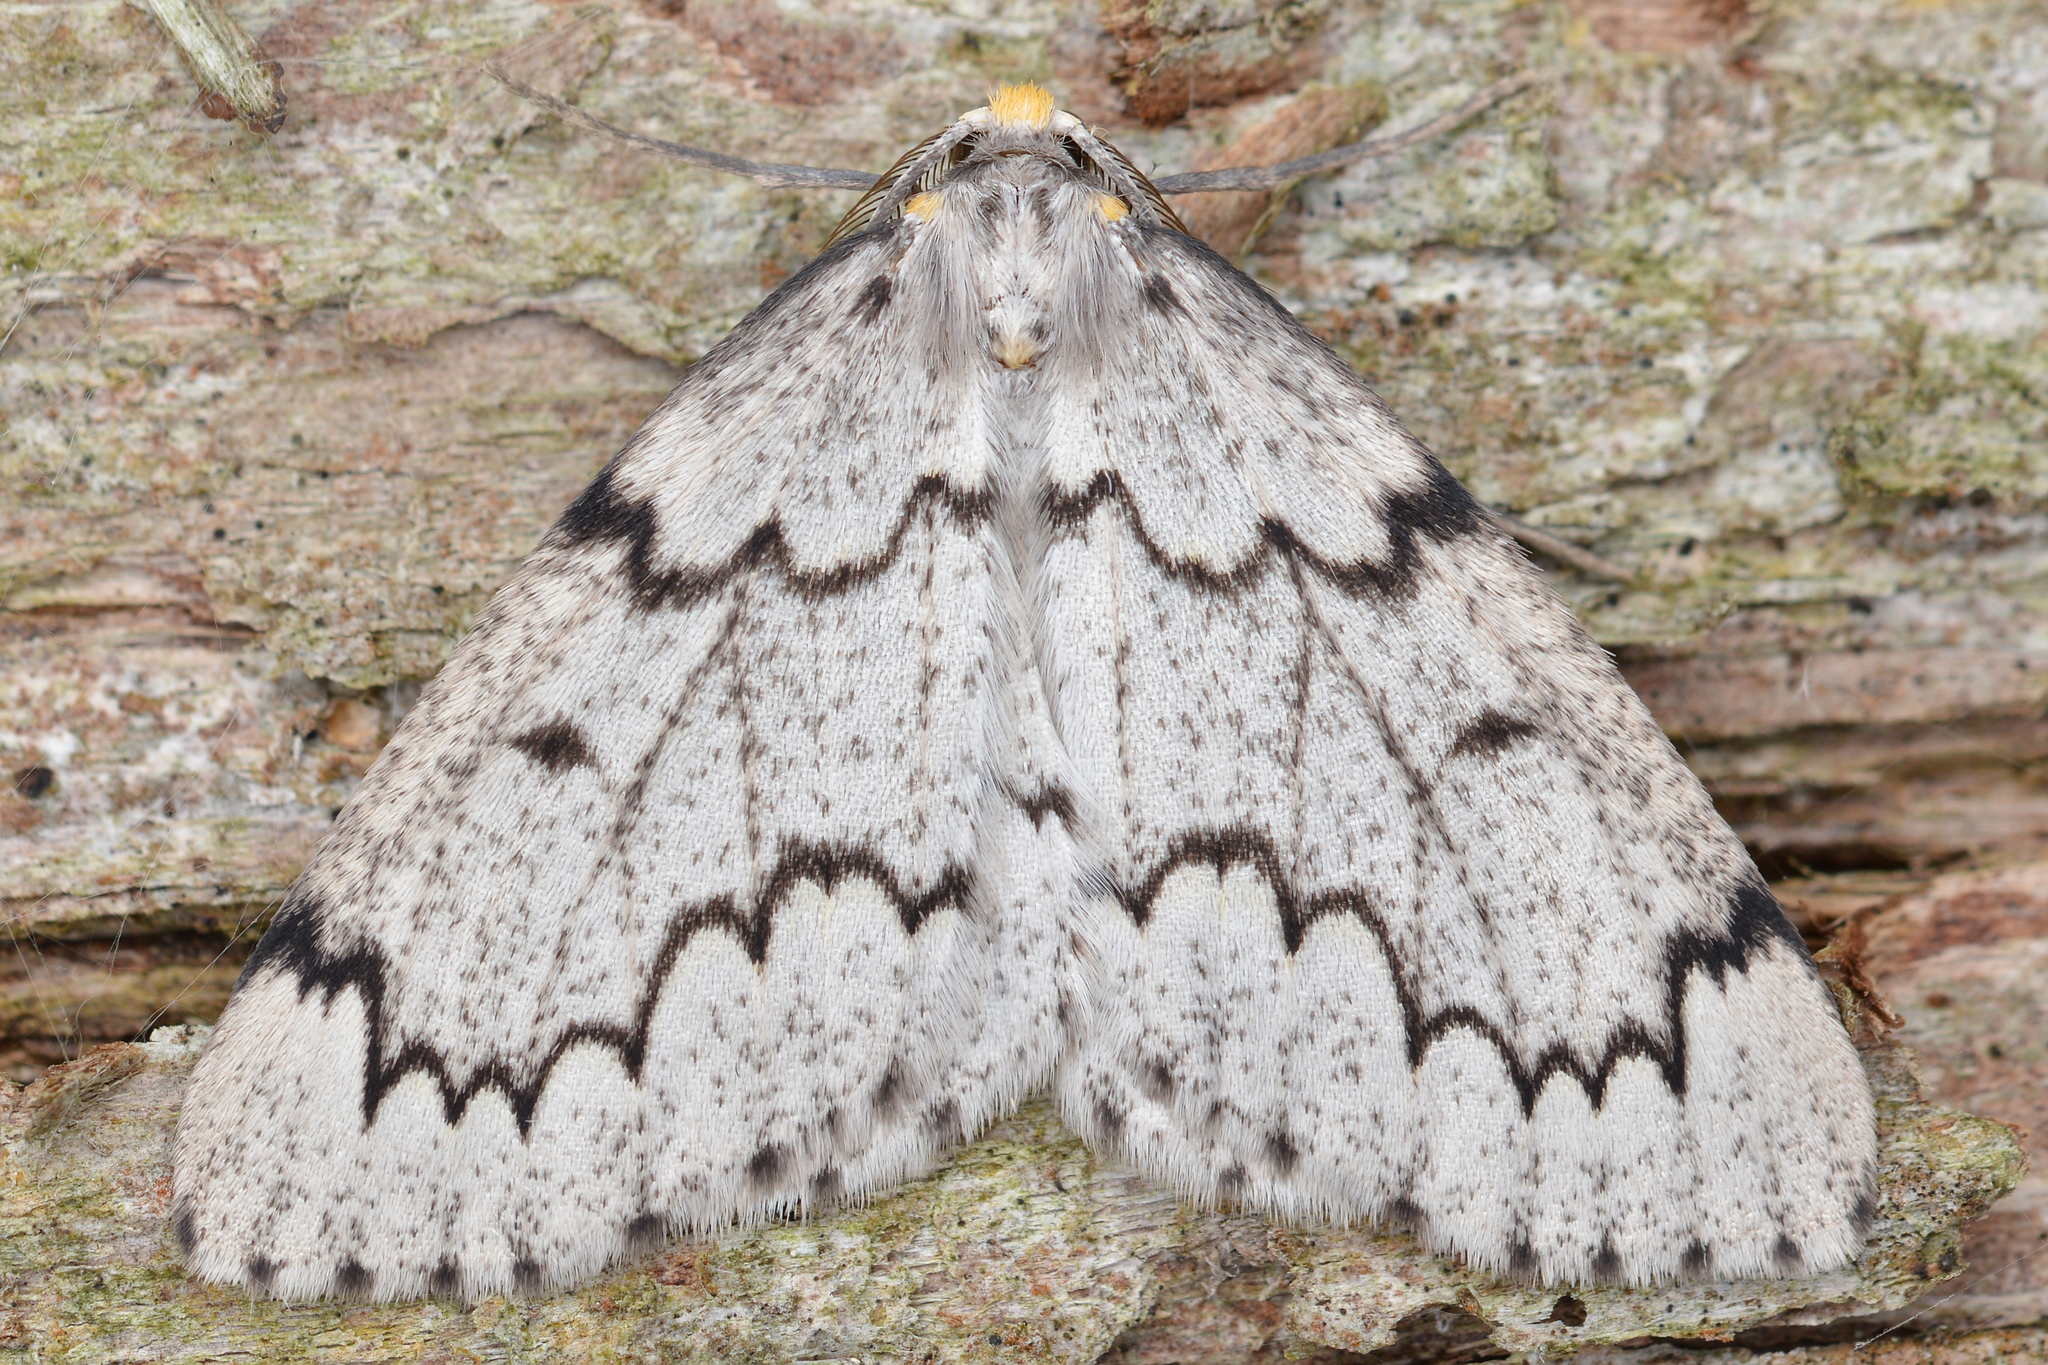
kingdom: Animalia
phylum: Arthropoda
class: Insecta
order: Lepidoptera
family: Geometridae
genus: Nepytia
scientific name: Nepytia canosaria
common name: False hemlock looper
